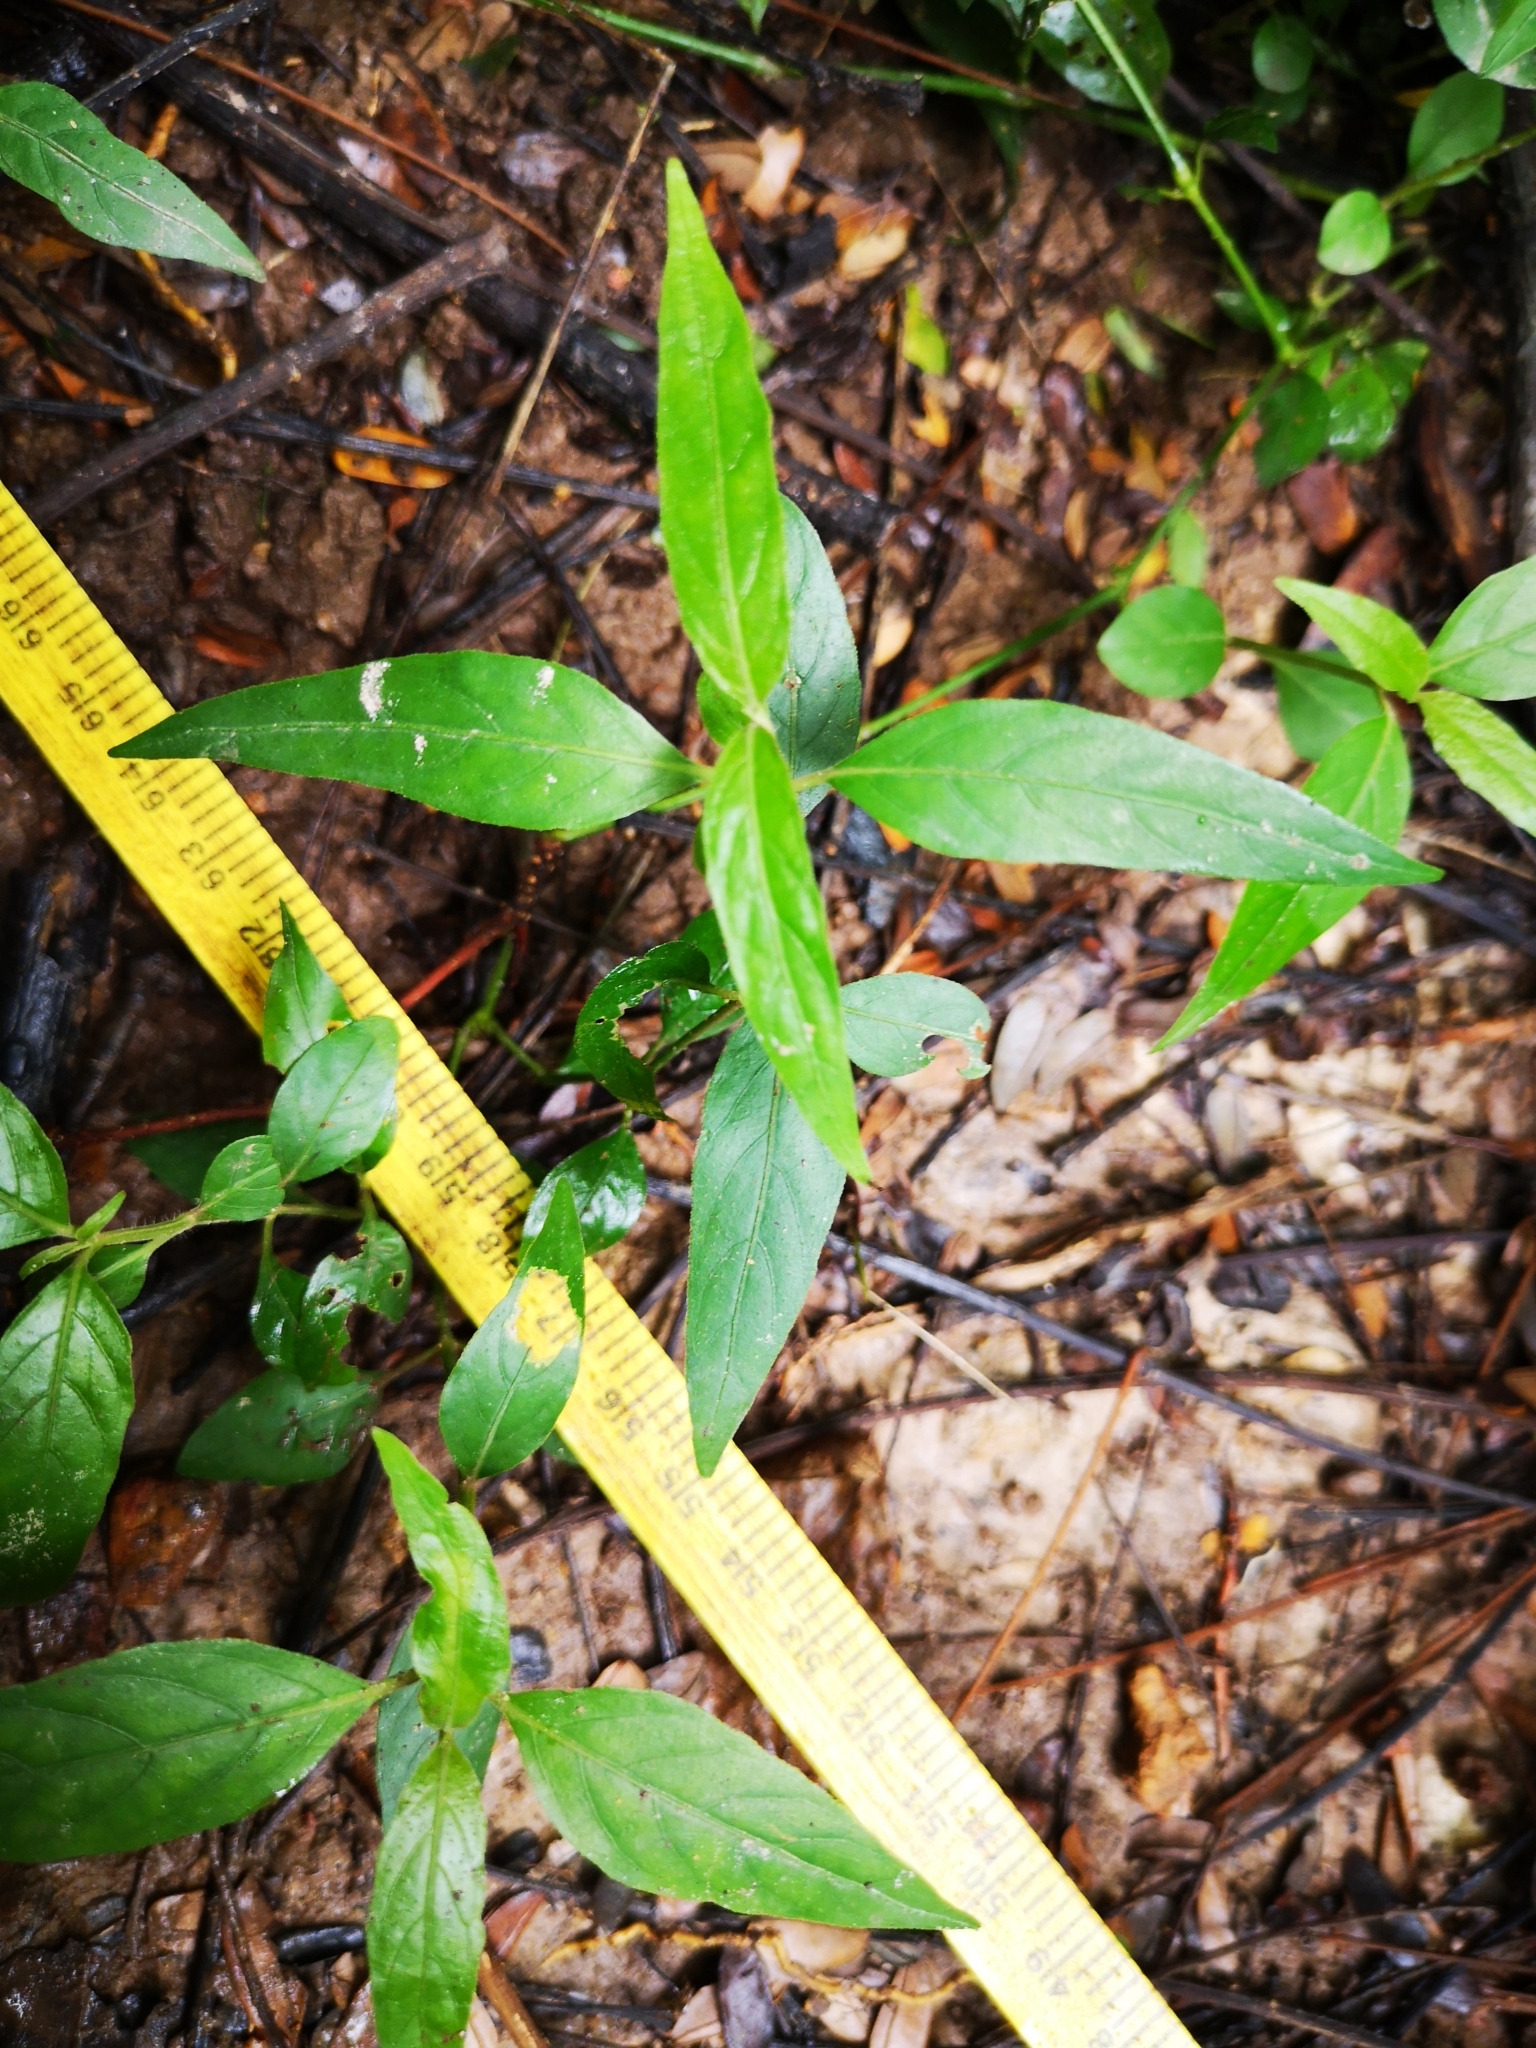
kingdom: Plantae
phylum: Tracheophyta
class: Magnoliopsida
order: Lamiales
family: Acanthaceae
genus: Ruellia
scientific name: Ruellia repens
